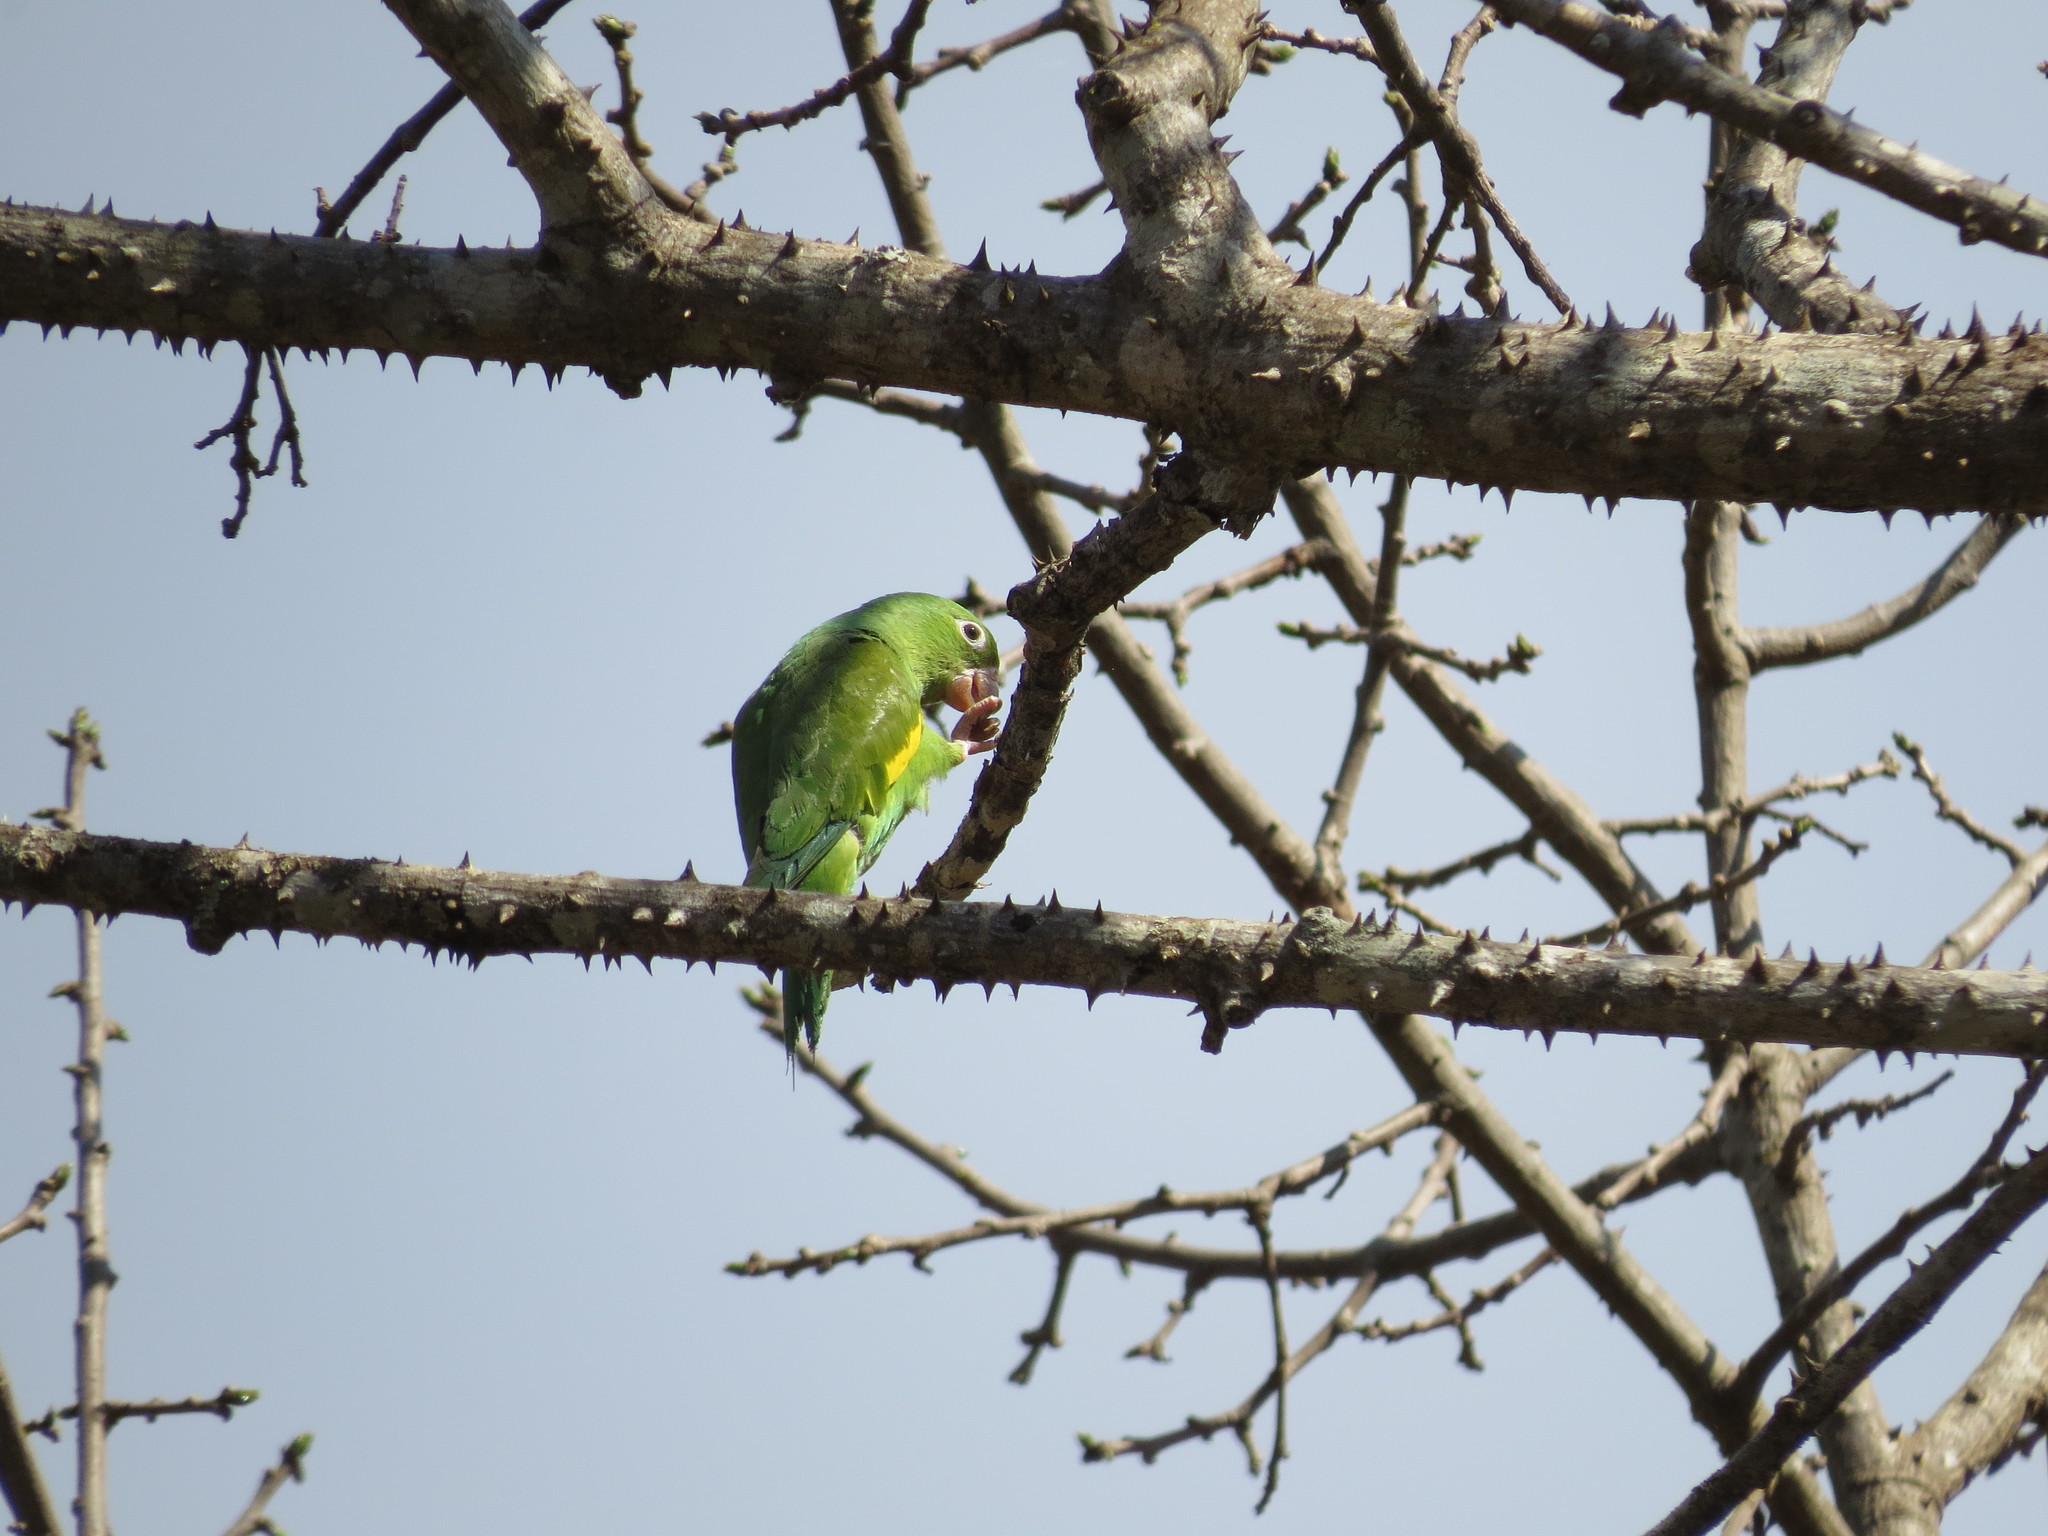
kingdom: Animalia
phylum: Chordata
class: Aves
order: Psittaciformes
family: Psittacidae
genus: Brotogeris
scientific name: Brotogeris chiriri
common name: Yellow-chevroned parakeet
